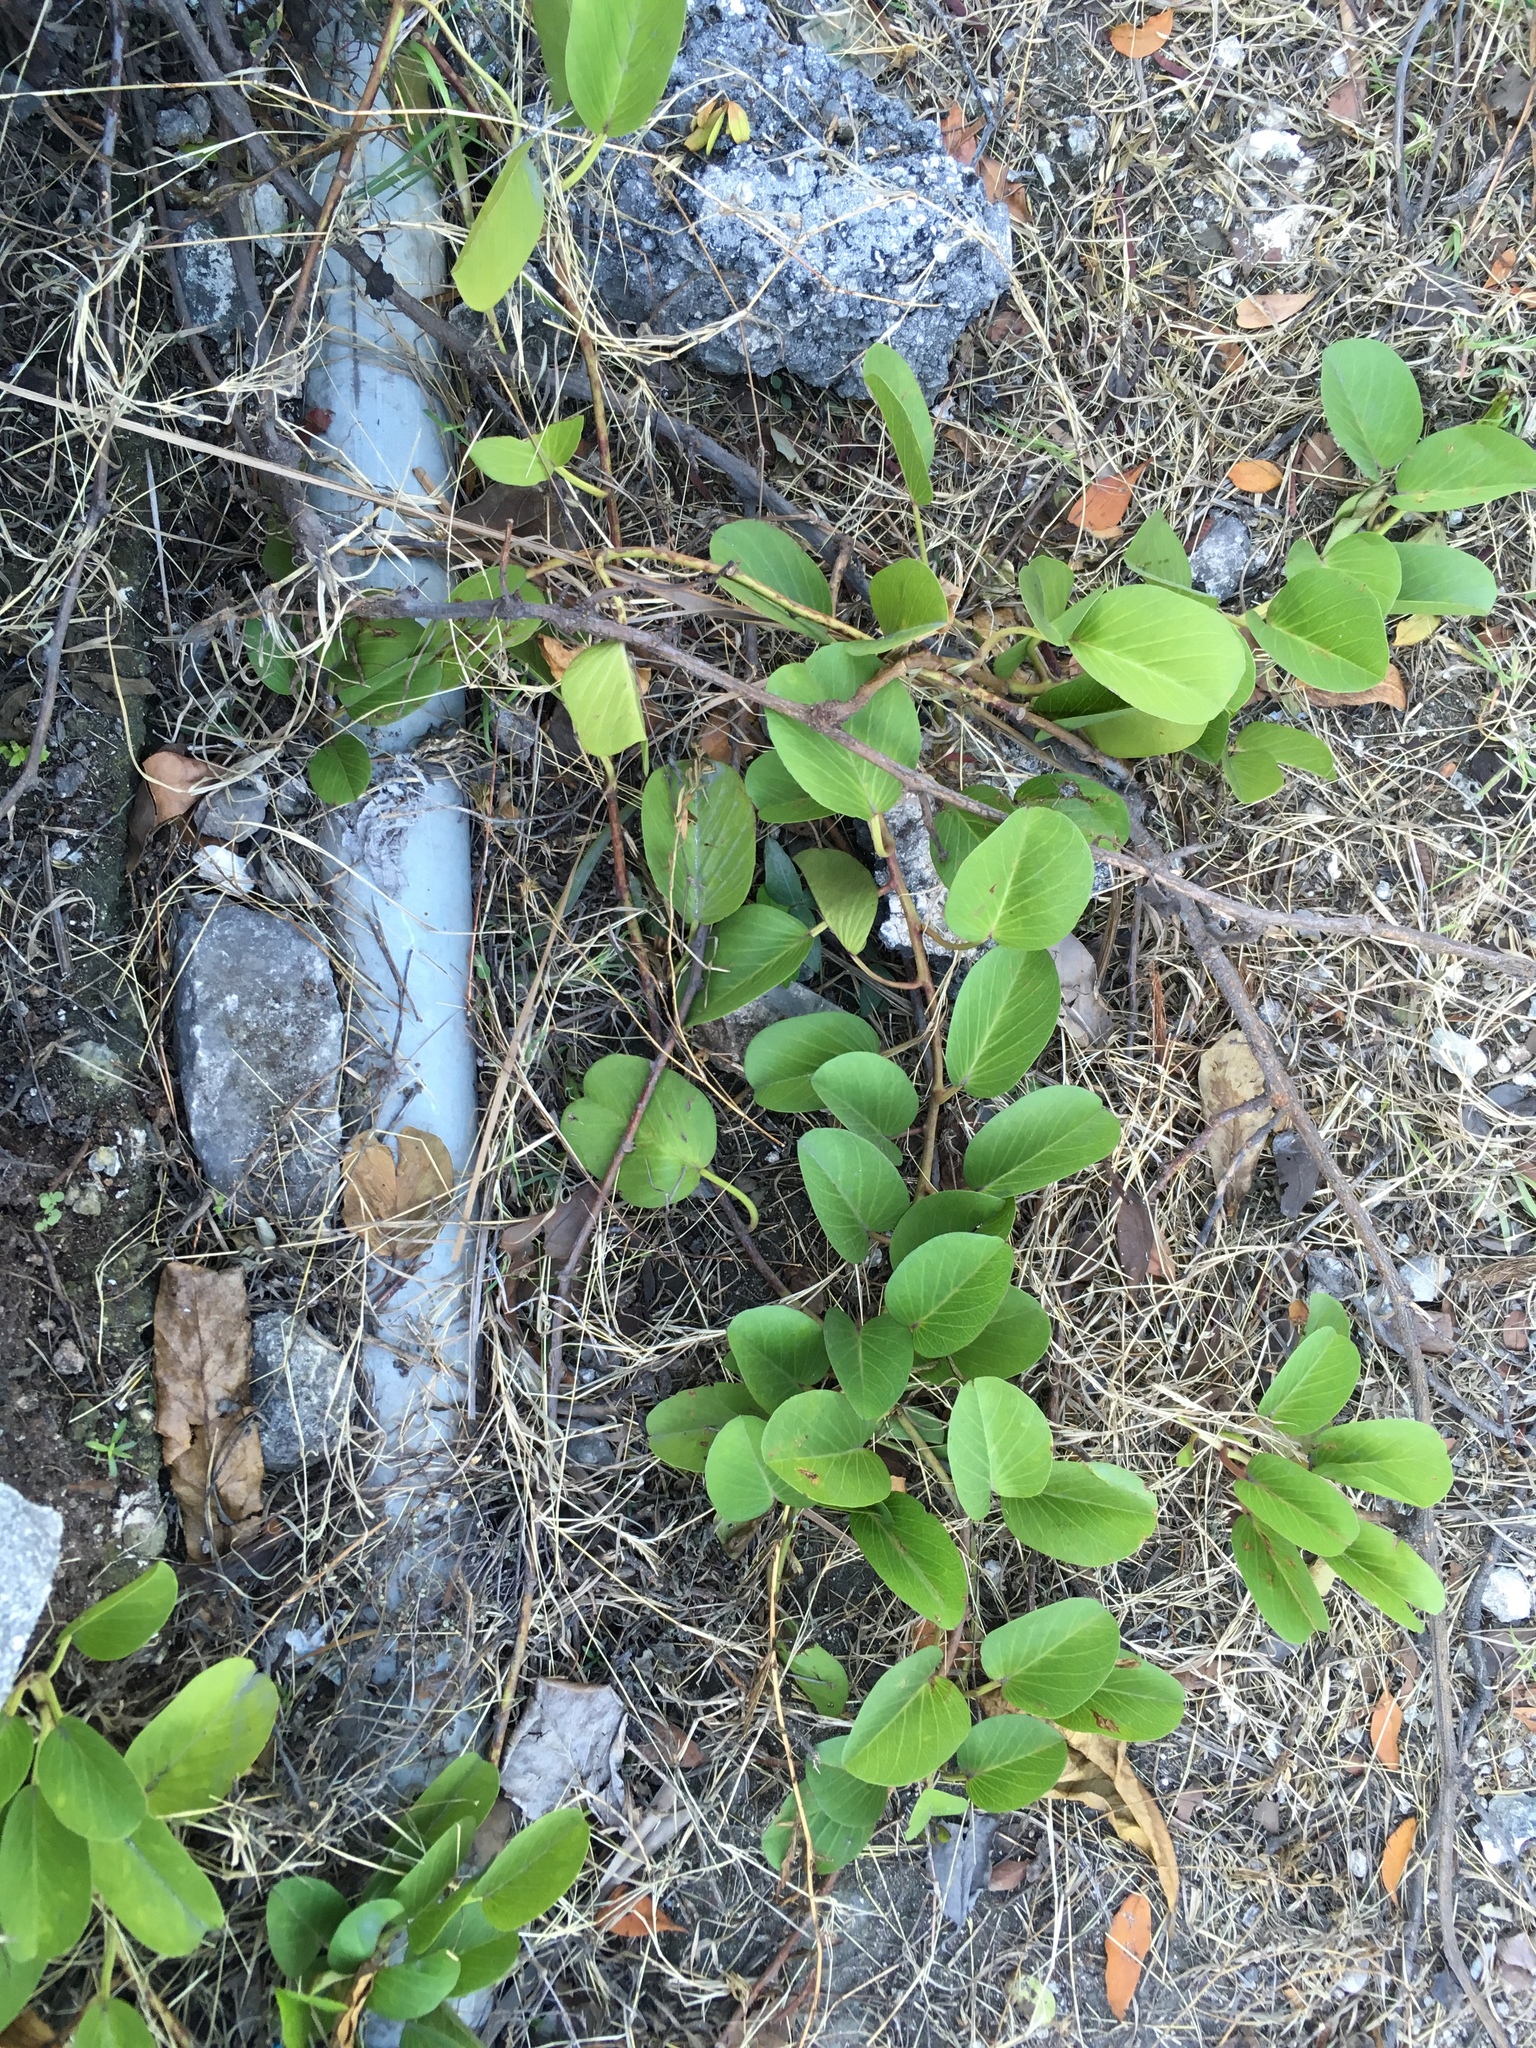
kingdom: Plantae
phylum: Tracheophyta
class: Magnoliopsida
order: Solanales
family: Convolvulaceae
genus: Ipomoea
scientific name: Ipomoea pes-caprae
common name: Beach morning glory
